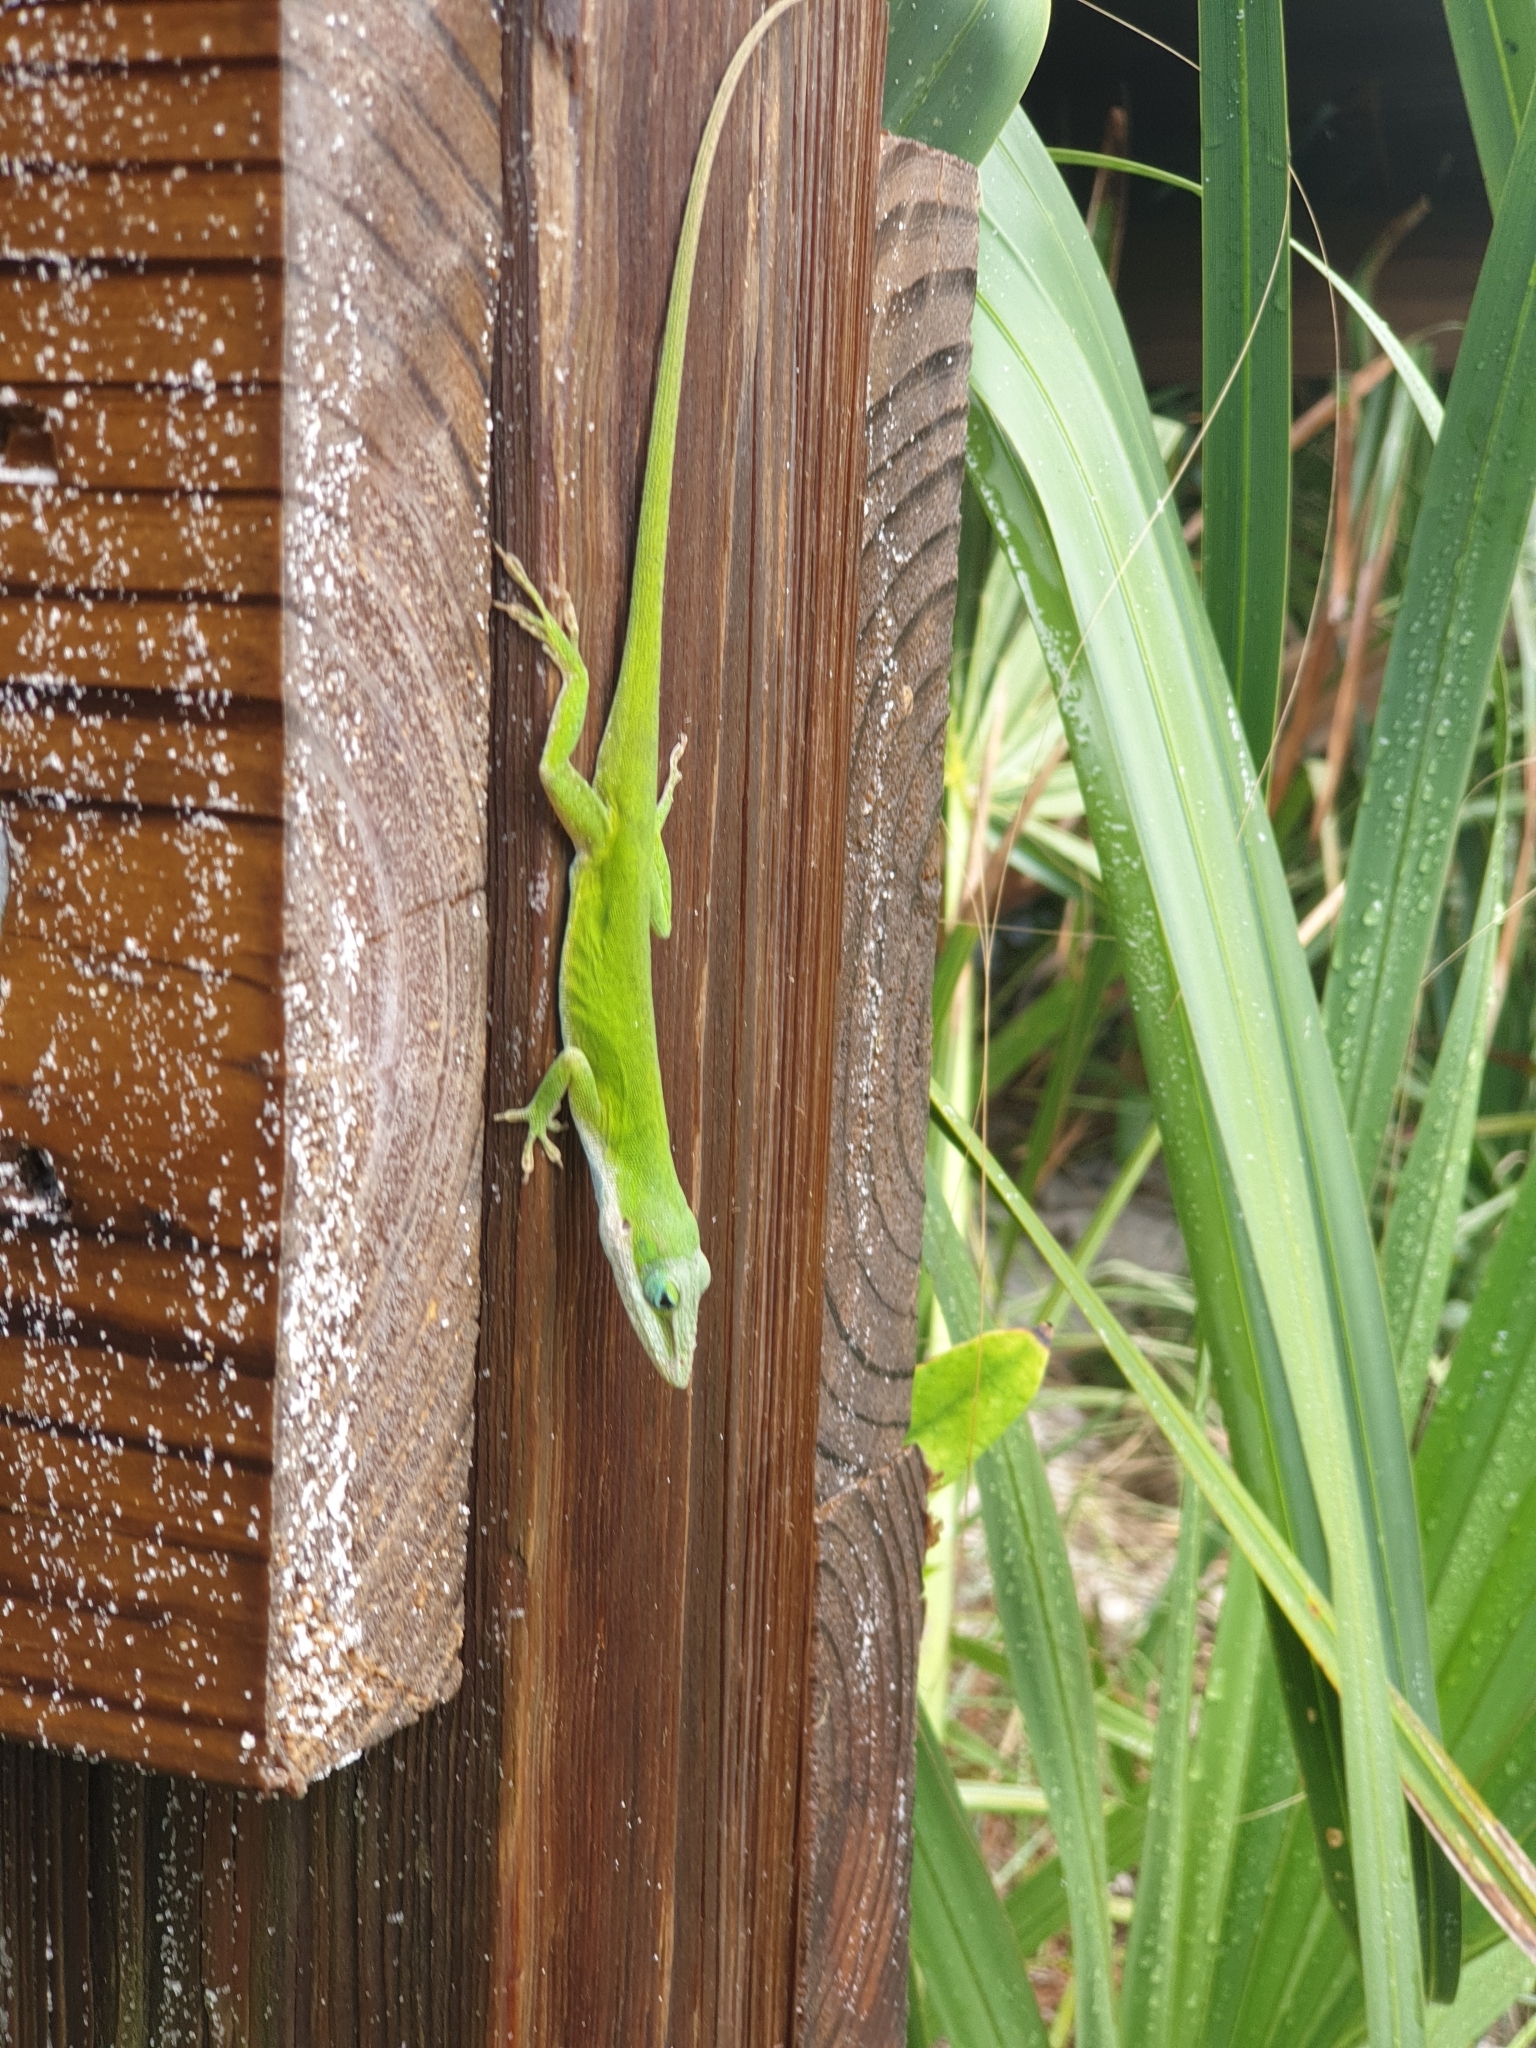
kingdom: Animalia
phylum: Chordata
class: Squamata
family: Dactyloidae
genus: Anolis
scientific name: Anolis carolinensis
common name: Green anole
